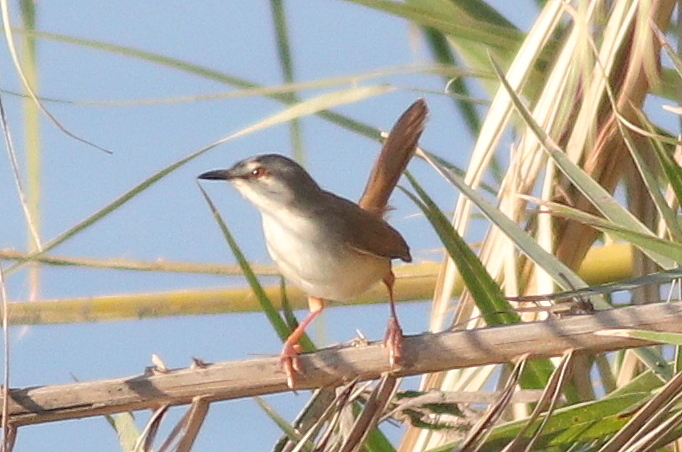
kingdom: Animalia
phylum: Chordata
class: Aves
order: Passeriformes
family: Cisticolidae
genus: Prinia
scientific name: Prinia subflava
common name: Tawny-flanked prinia
